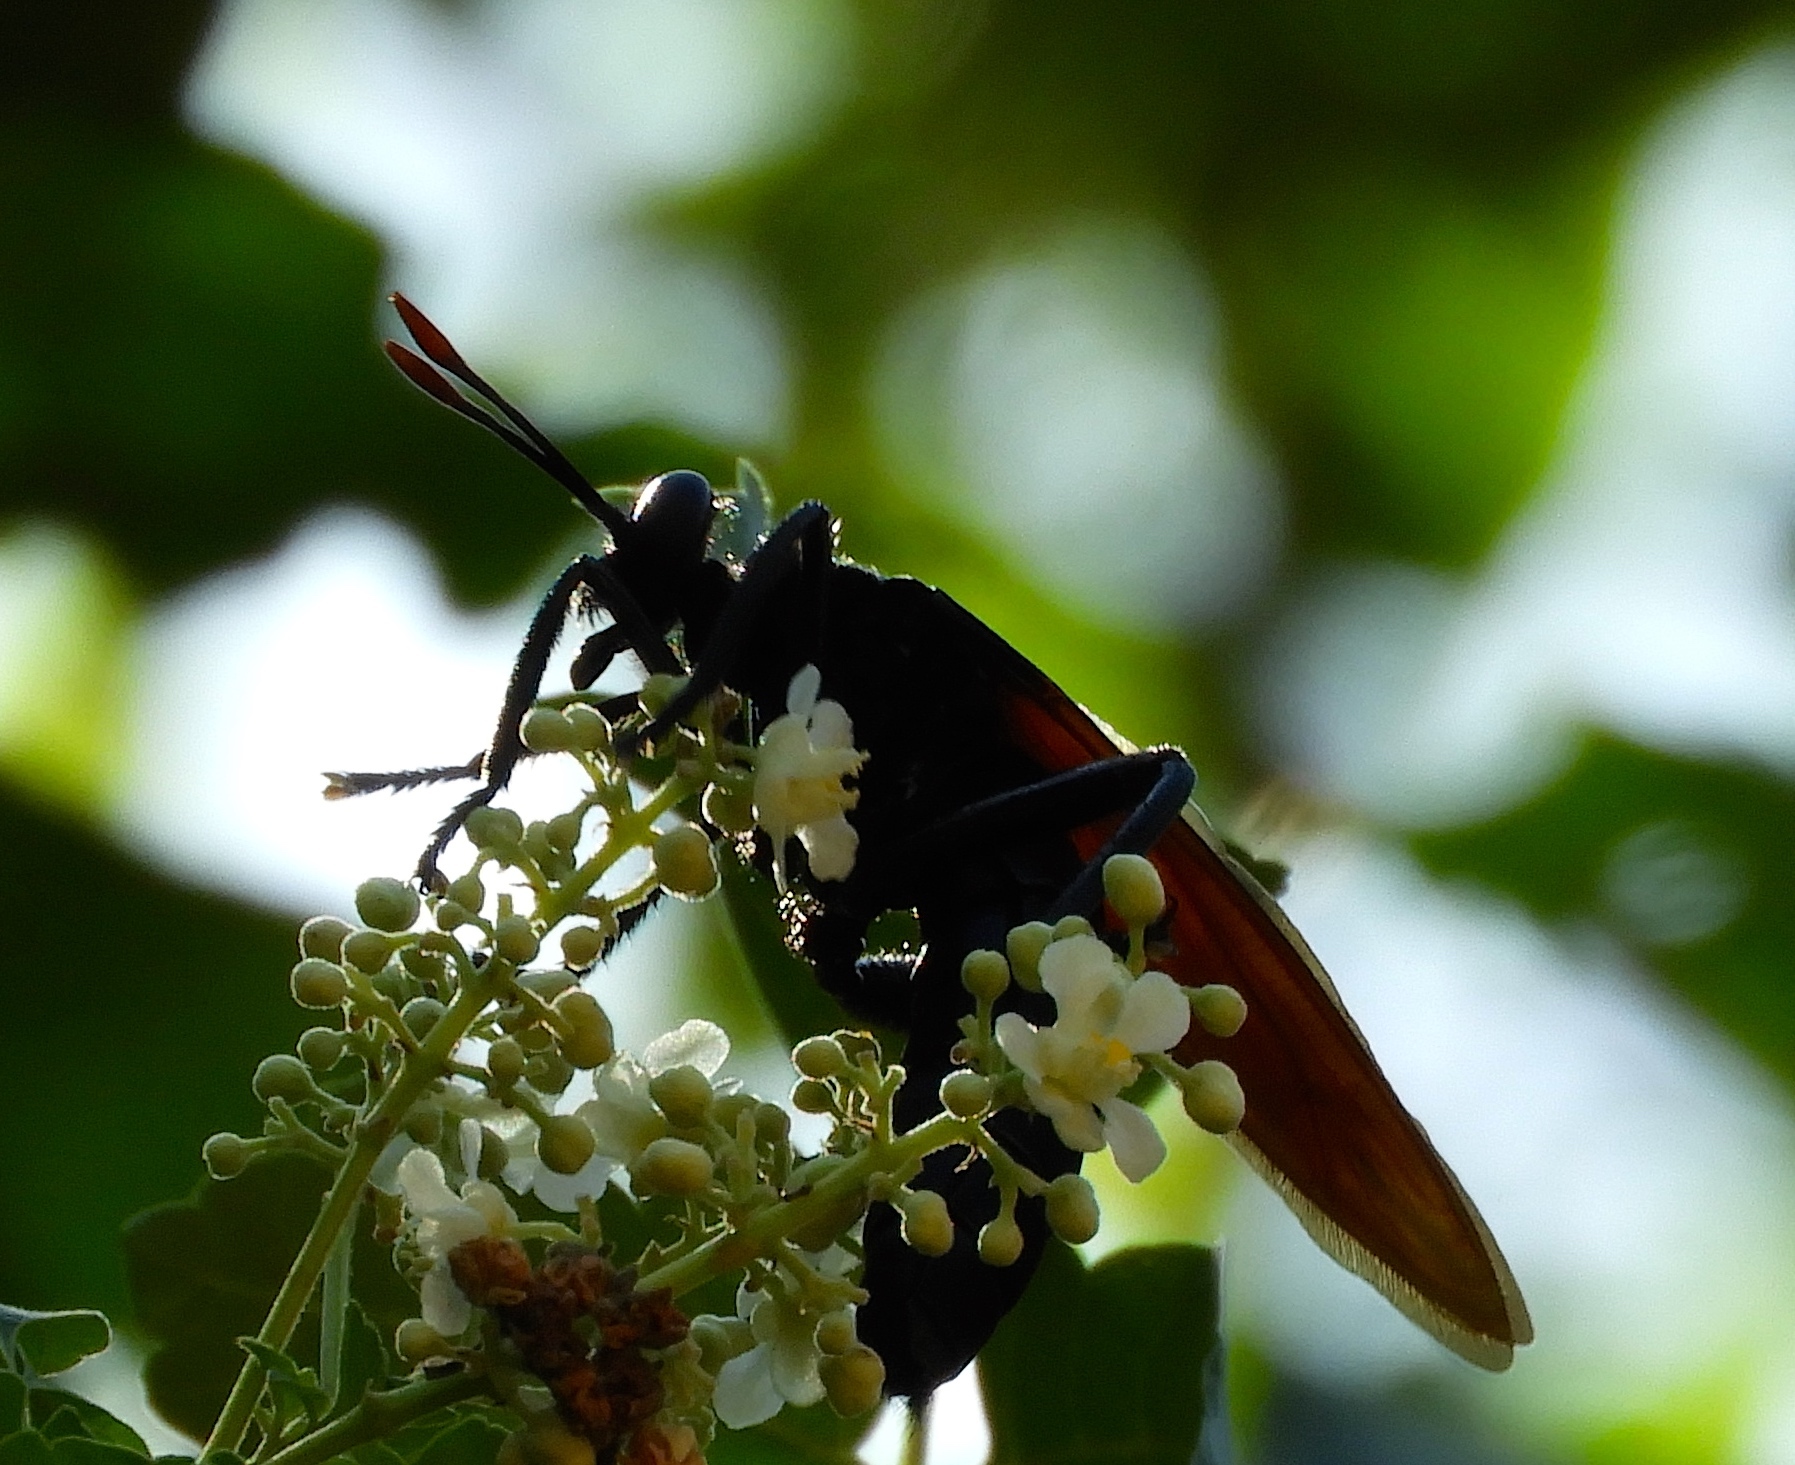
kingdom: Animalia
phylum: Arthropoda
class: Insecta
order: Diptera
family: Mydidae
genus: Mydas
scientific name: Mydas rubidapex
